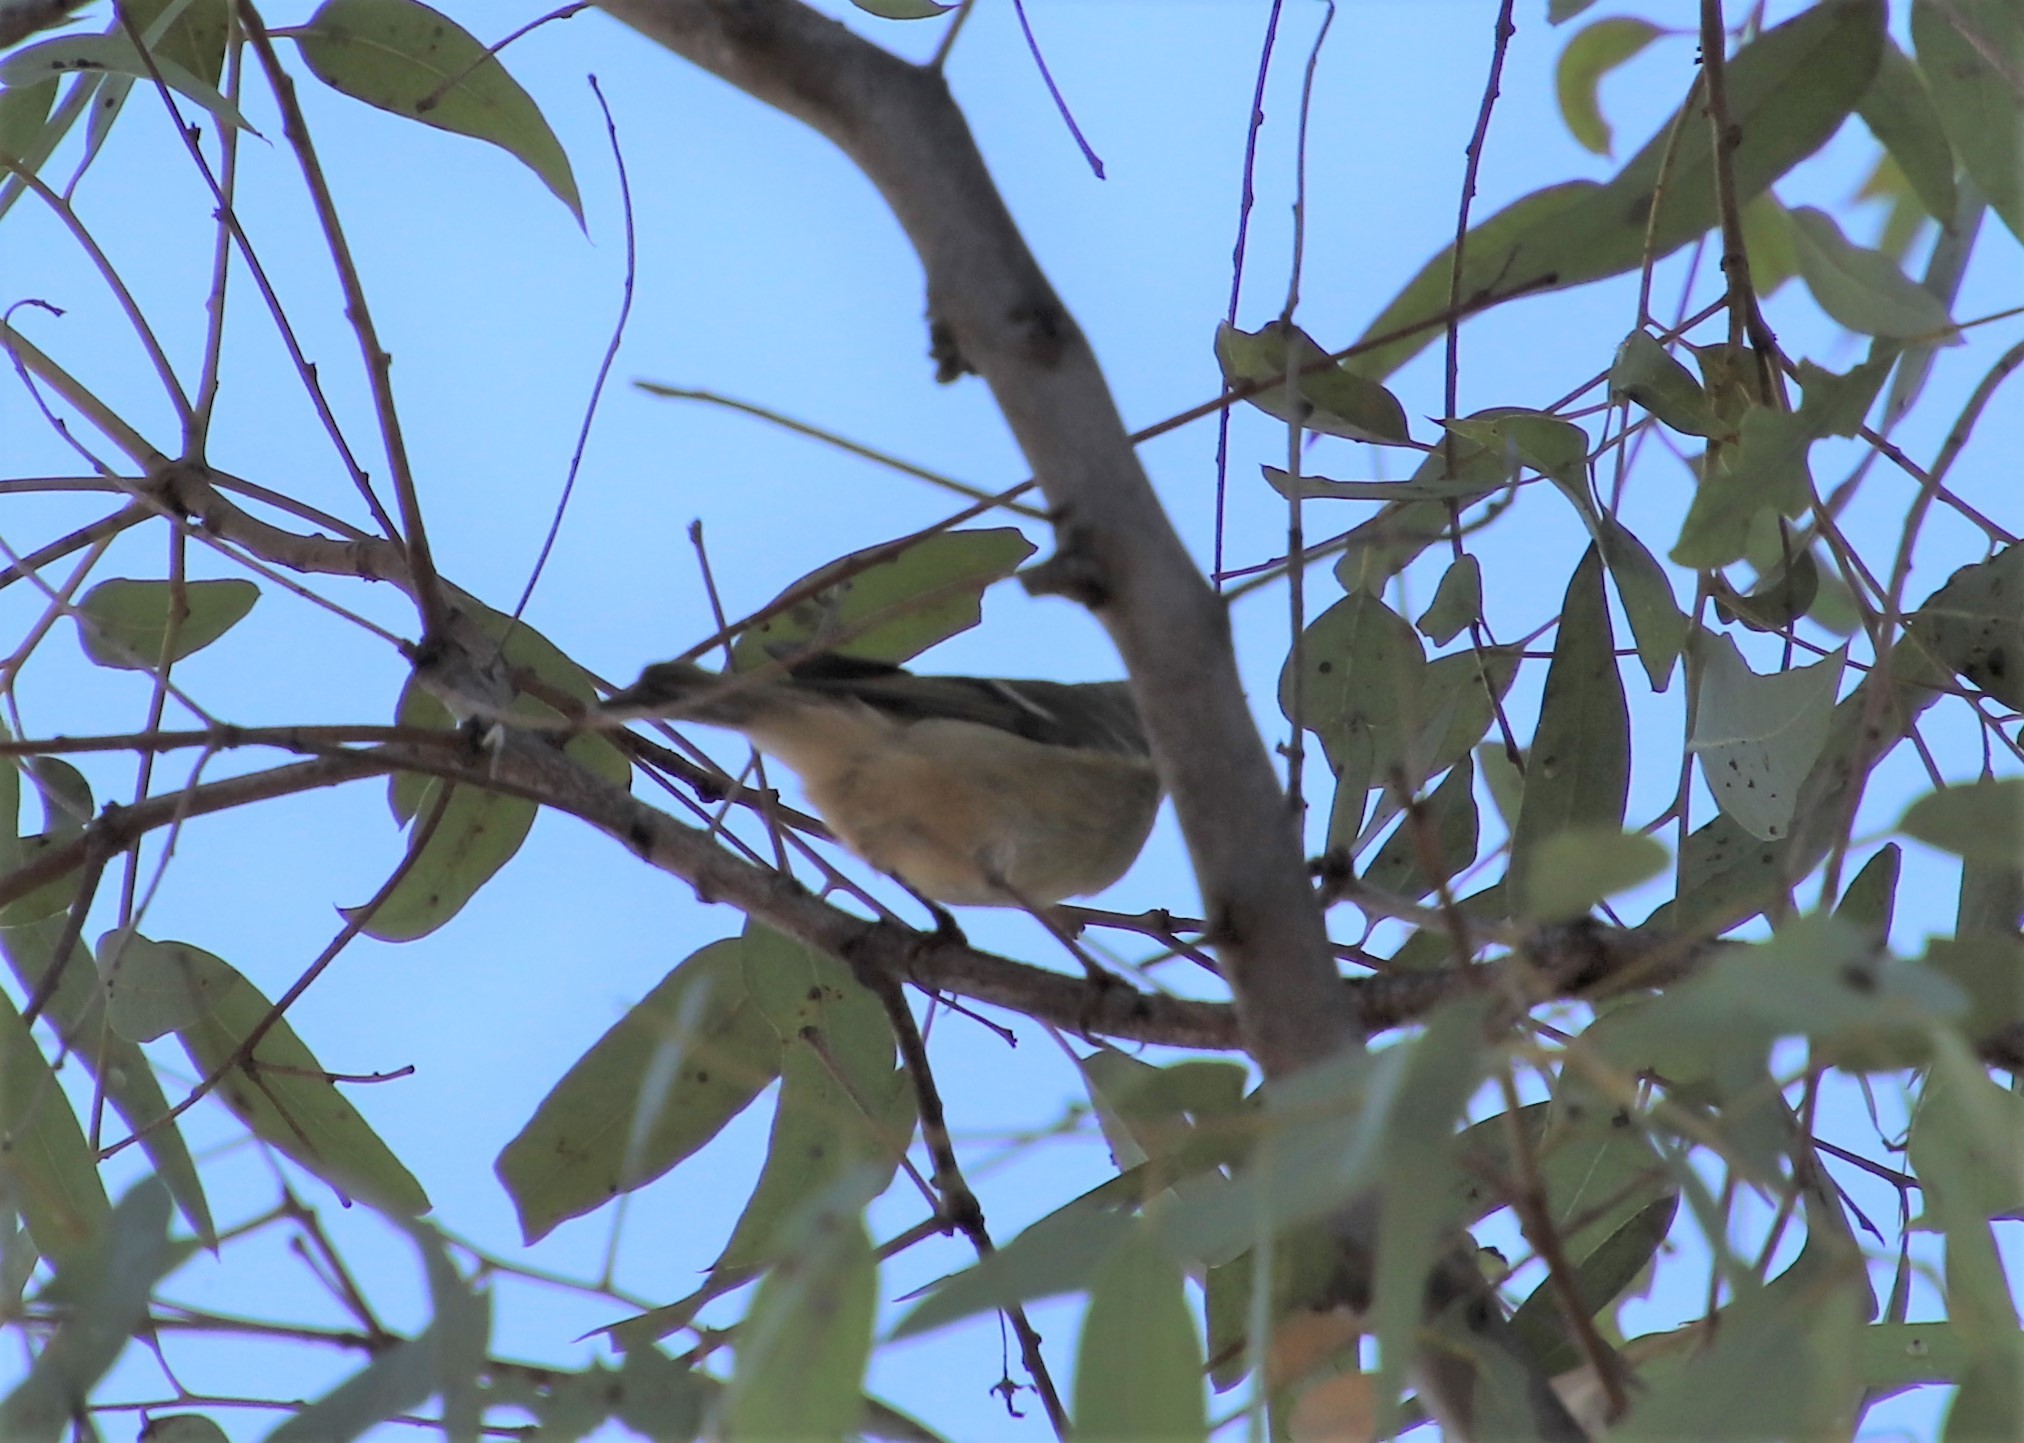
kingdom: Animalia
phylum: Chordata
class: Aves
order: Passeriformes
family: Regulidae
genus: Regulus
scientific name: Regulus calendula
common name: Ruby-crowned kinglet
